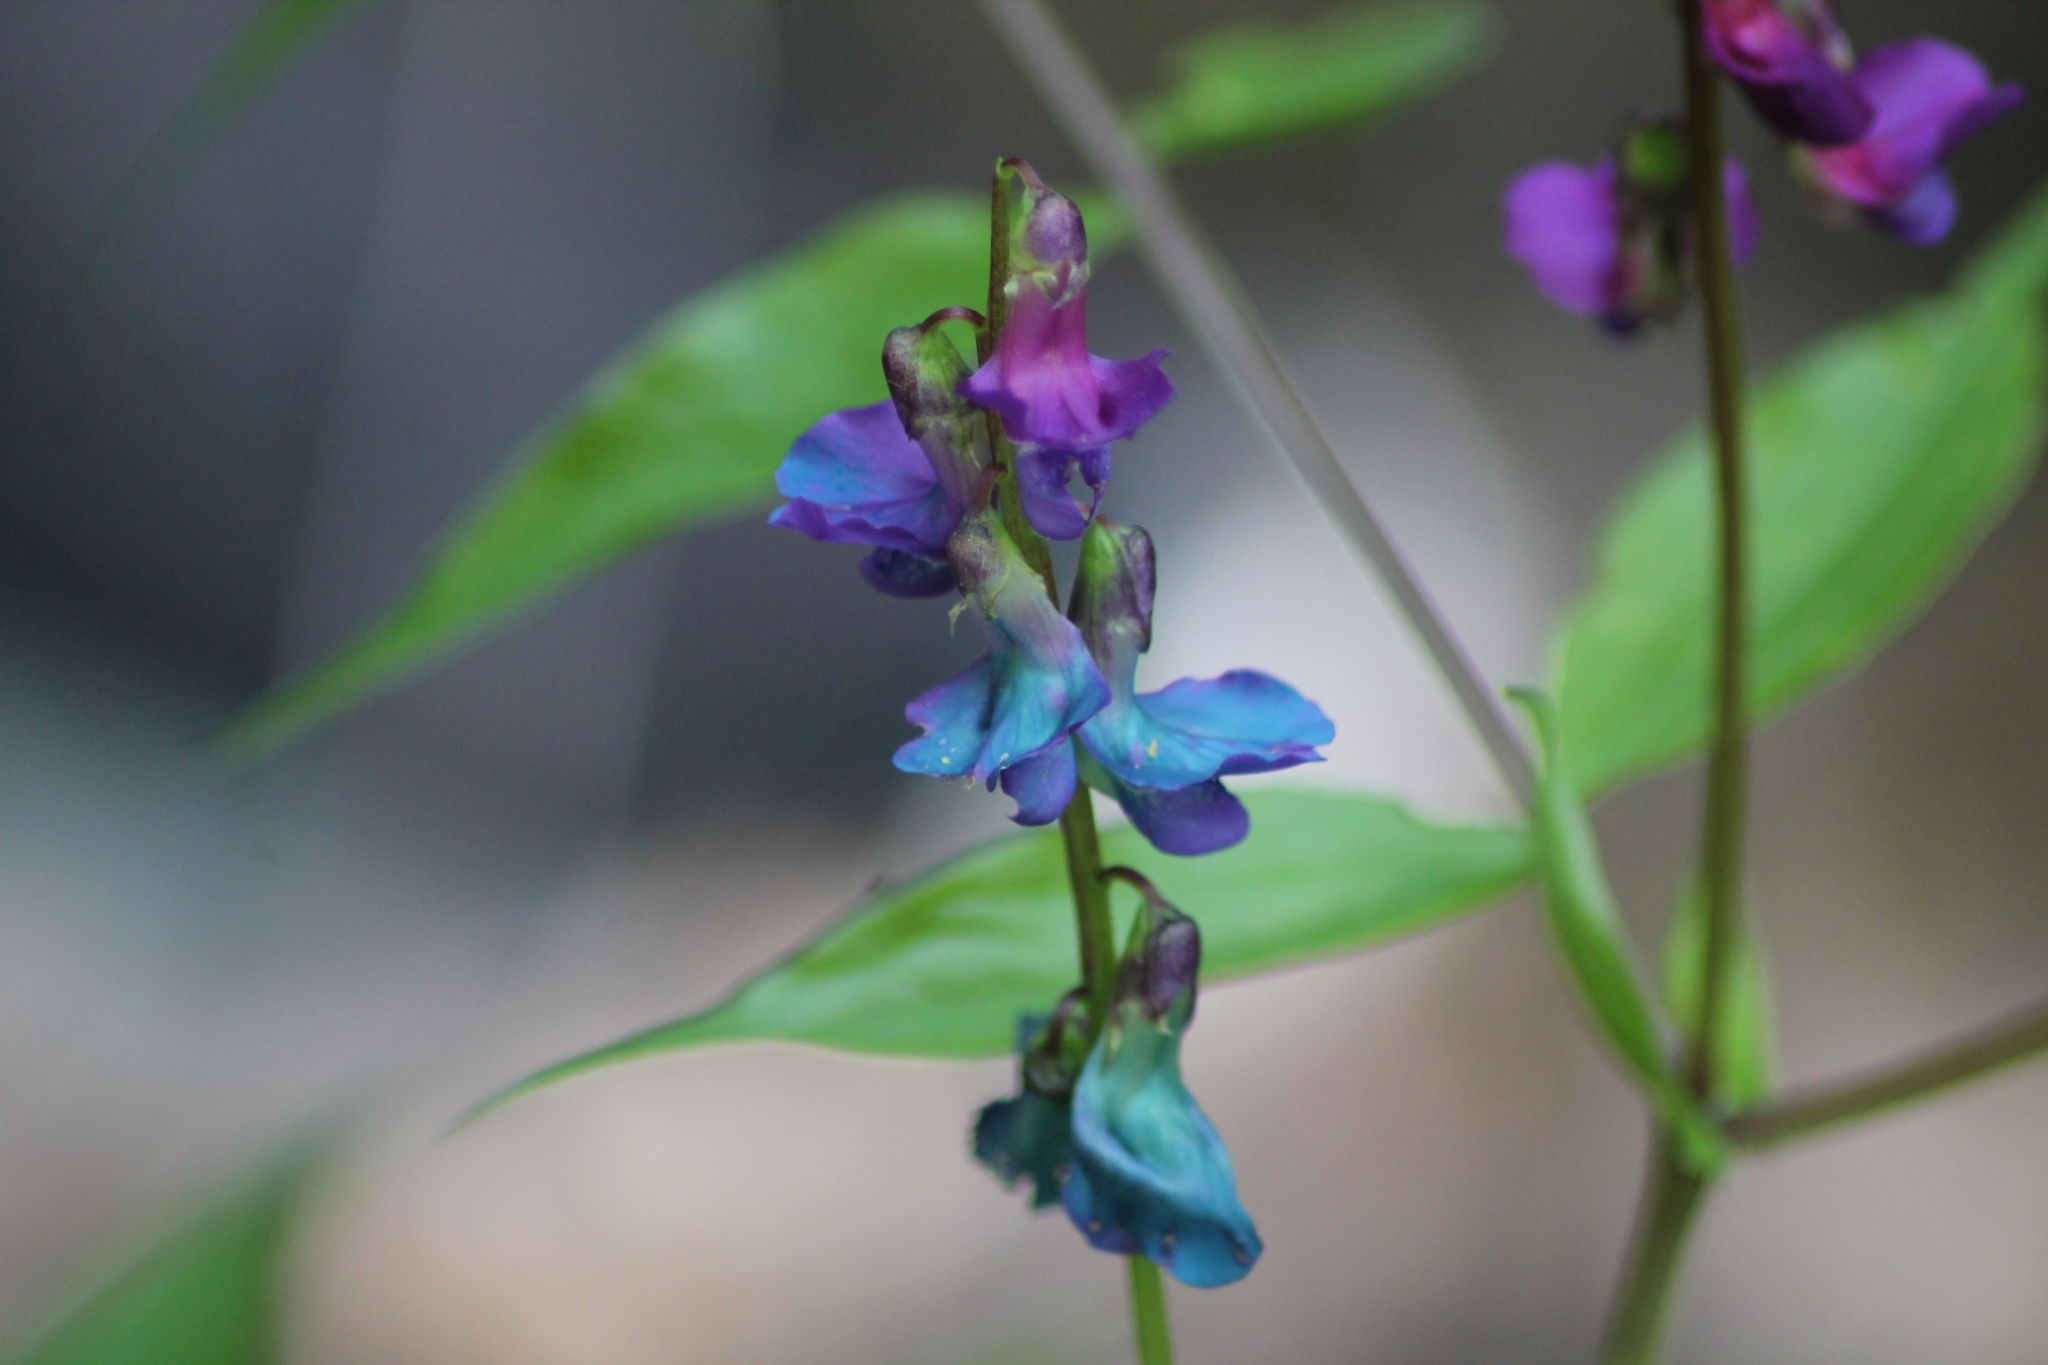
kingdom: Plantae
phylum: Tracheophyta
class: Magnoliopsida
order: Fabales
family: Fabaceae
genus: Lathyrus
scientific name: Lathyrus vernus
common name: Spring pea
